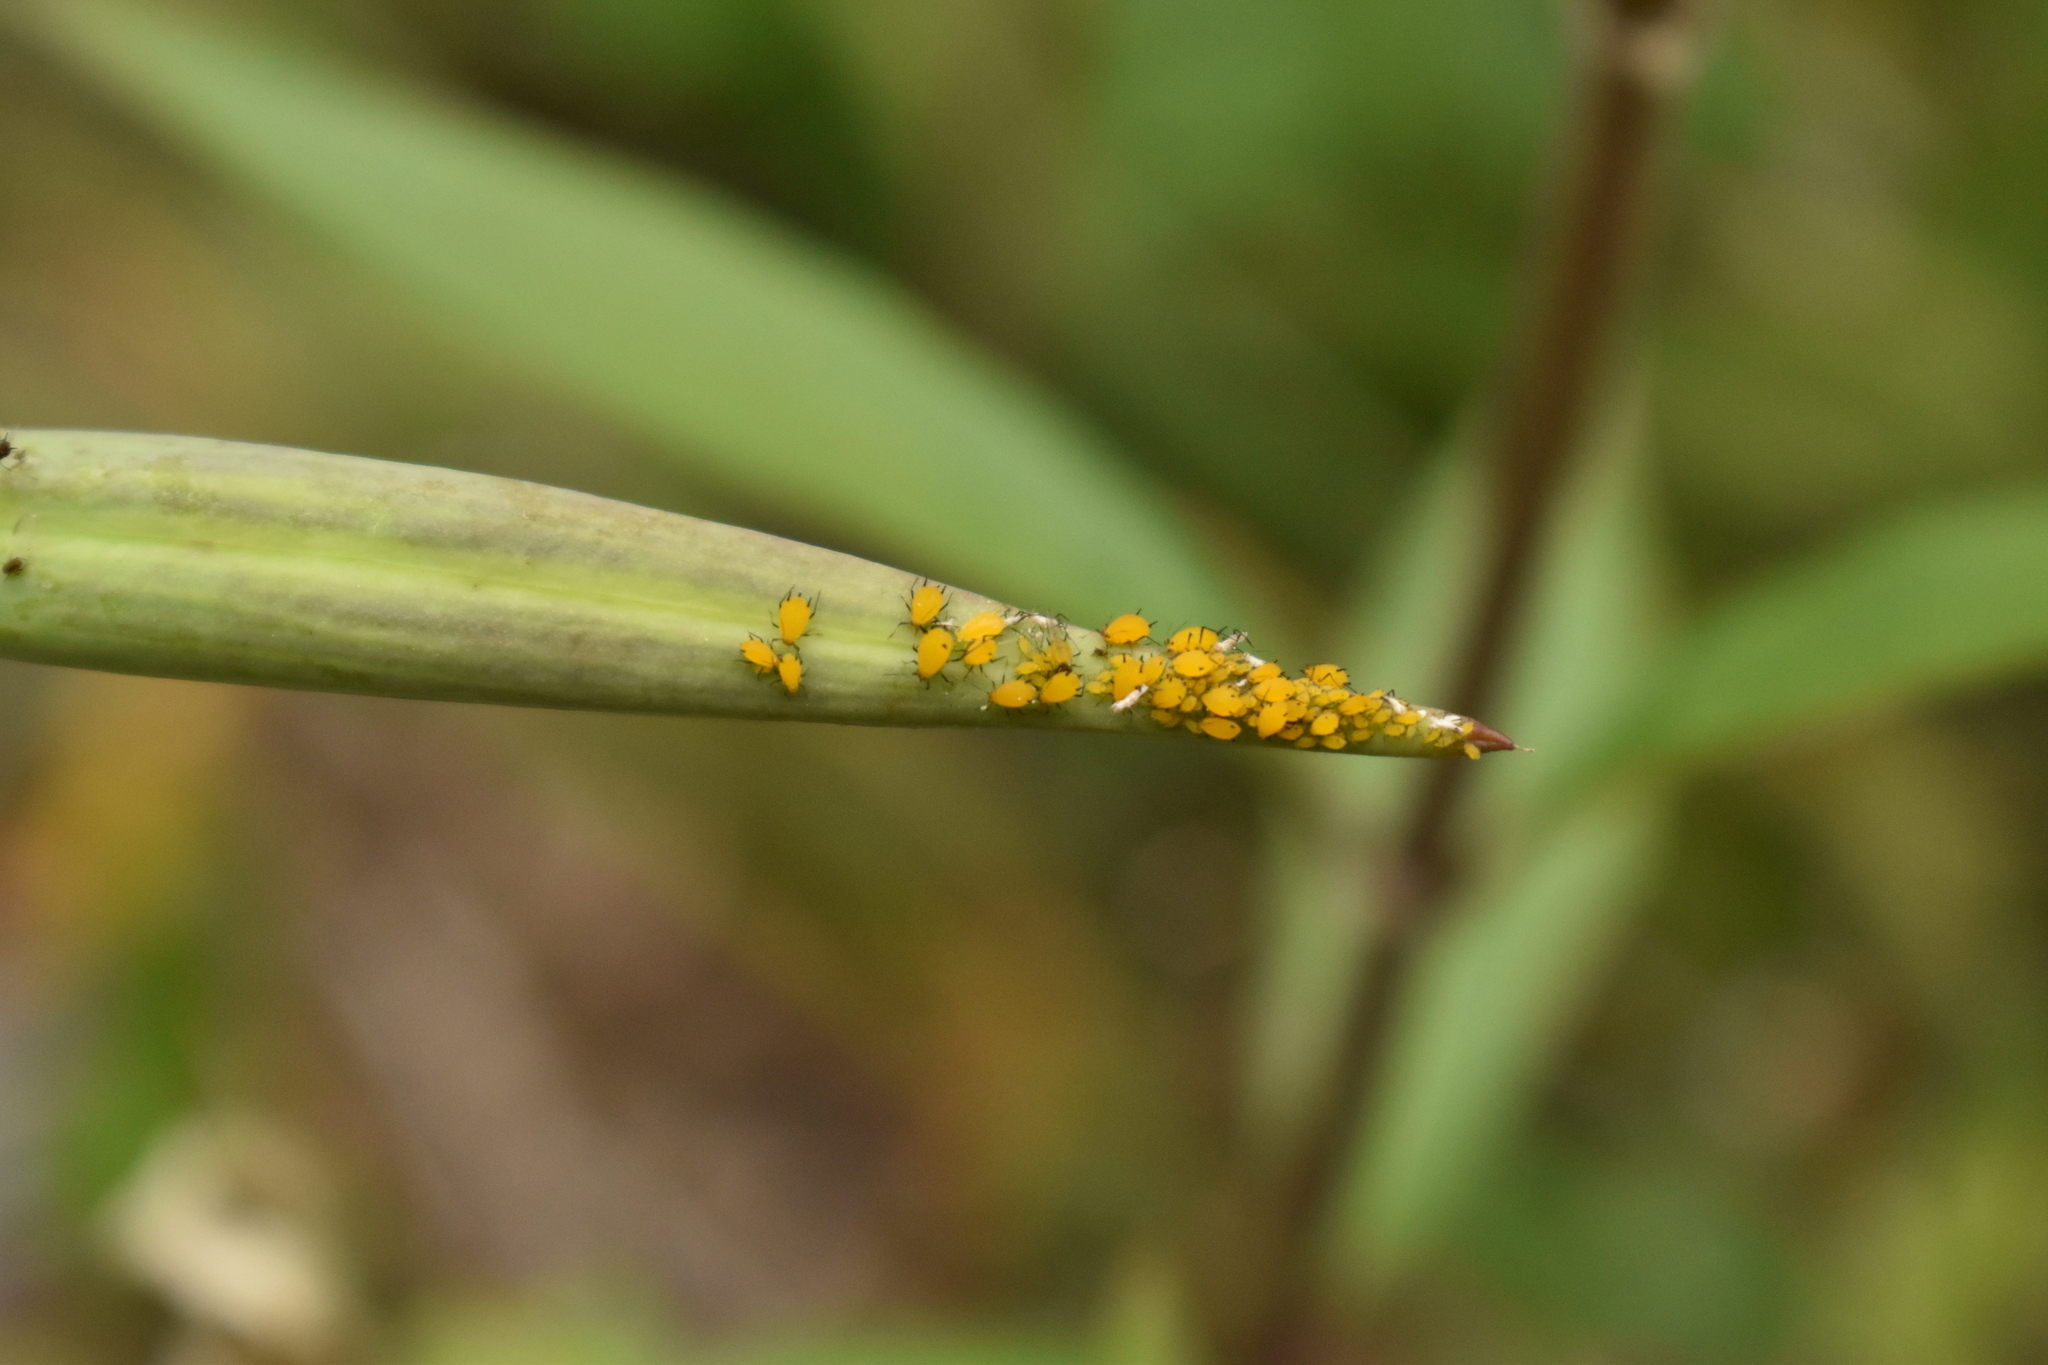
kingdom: Animalia
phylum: Arthropoda
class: Insecta
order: Hemiptera
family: Aphididae
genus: Aphis
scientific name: Aphis nerii
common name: Oleander aphid
